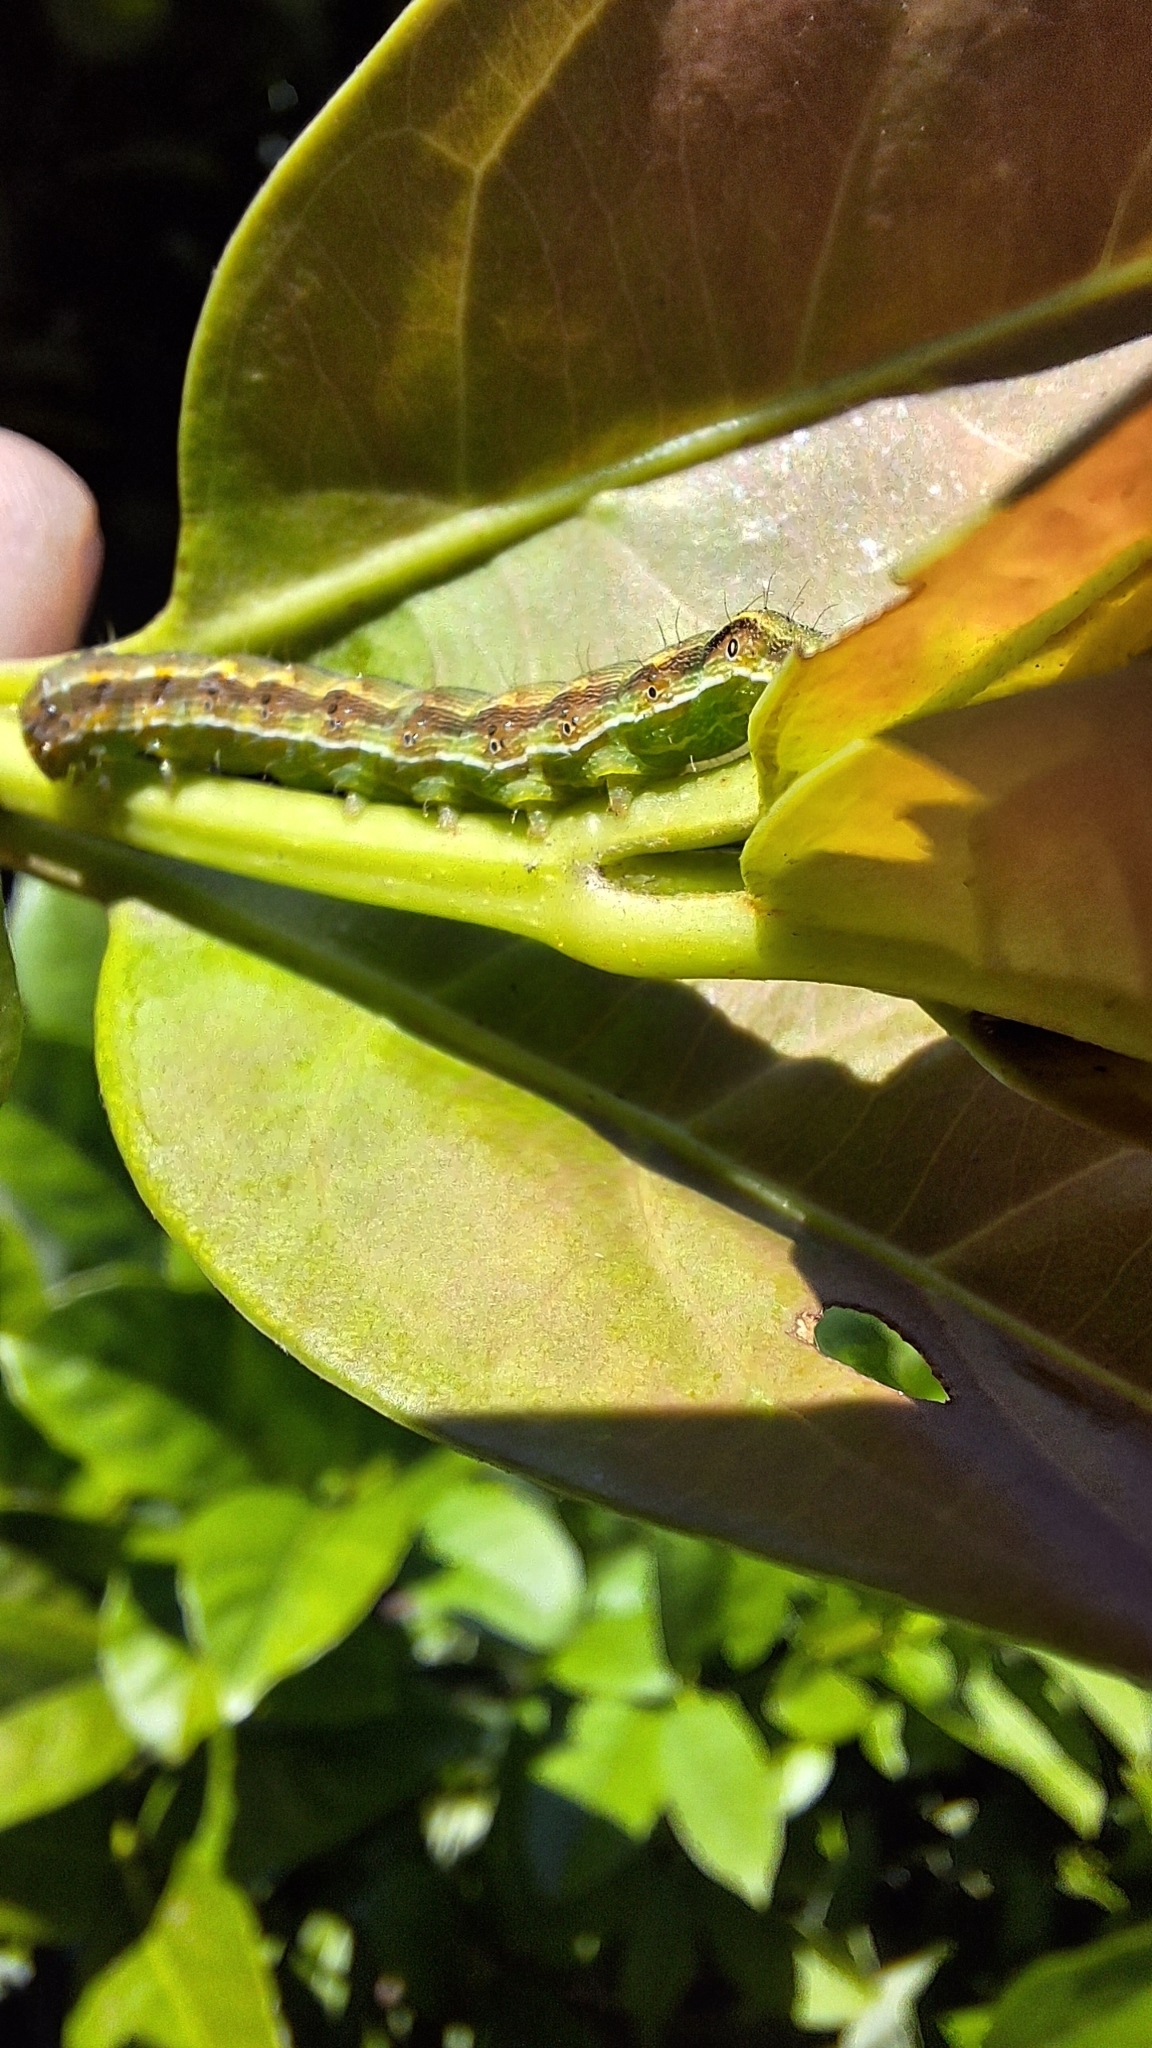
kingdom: Animalia
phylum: Arthropoda
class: Insecta
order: Lepidoptera
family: Noctuidae
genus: Helicoverpa
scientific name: Helicoverpa armigera
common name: Cotton bollworm
